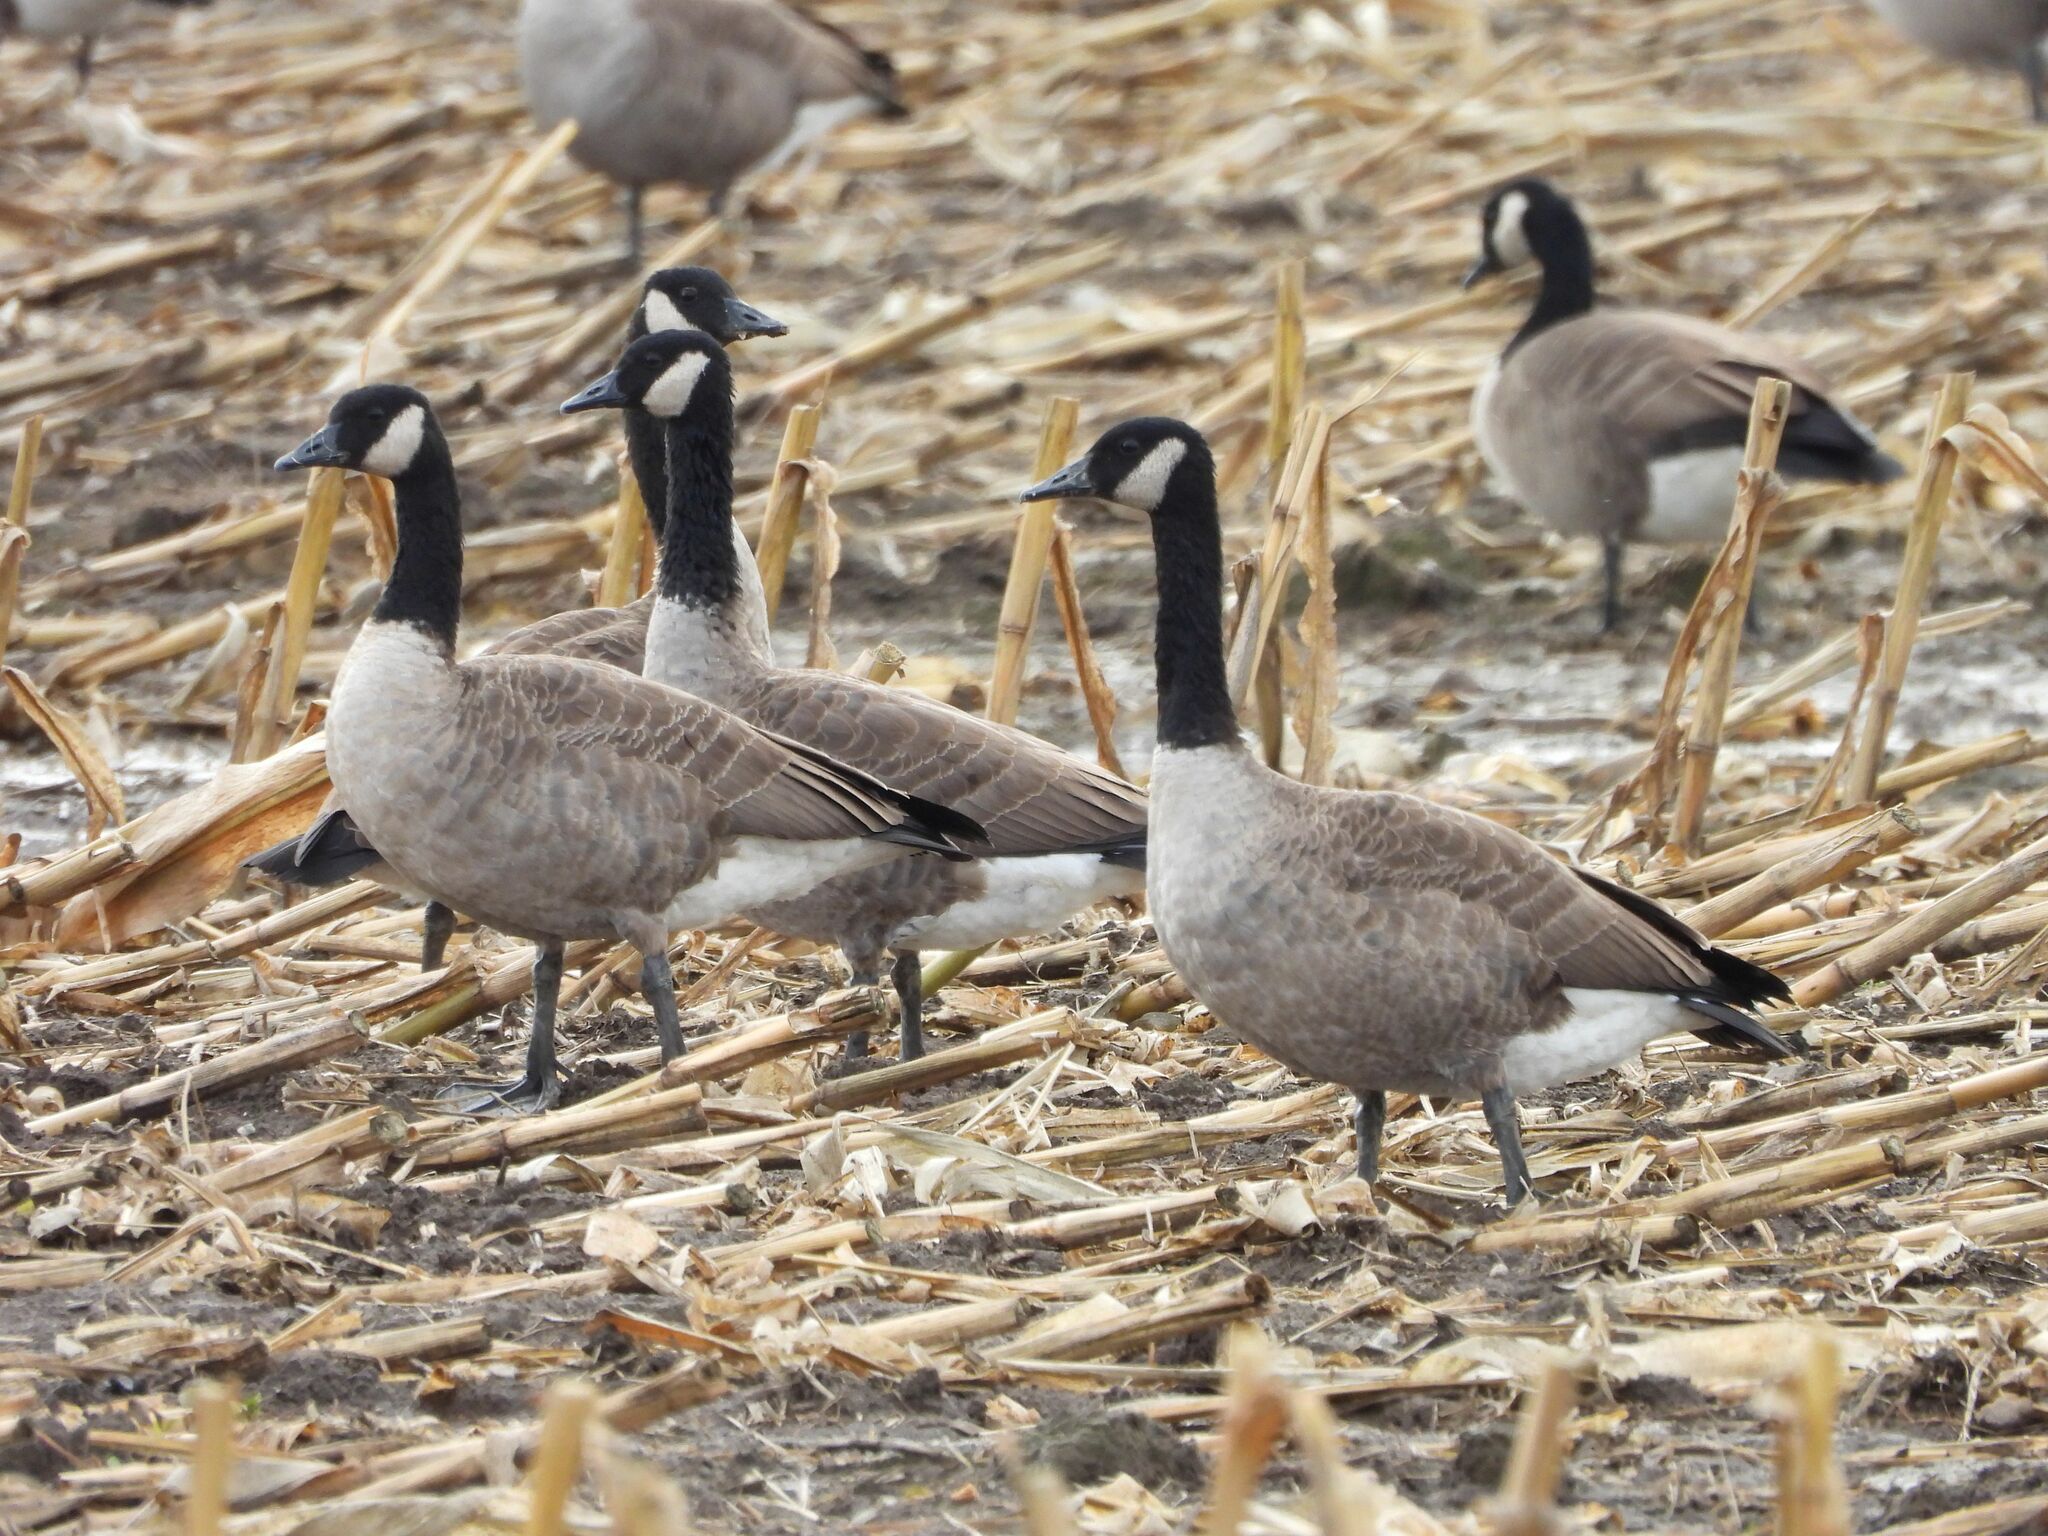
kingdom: Animalia
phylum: Chordata
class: Aves
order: Anseriformes
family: Anatidae
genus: Branta
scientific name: Branta canadensis
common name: Canada goose
